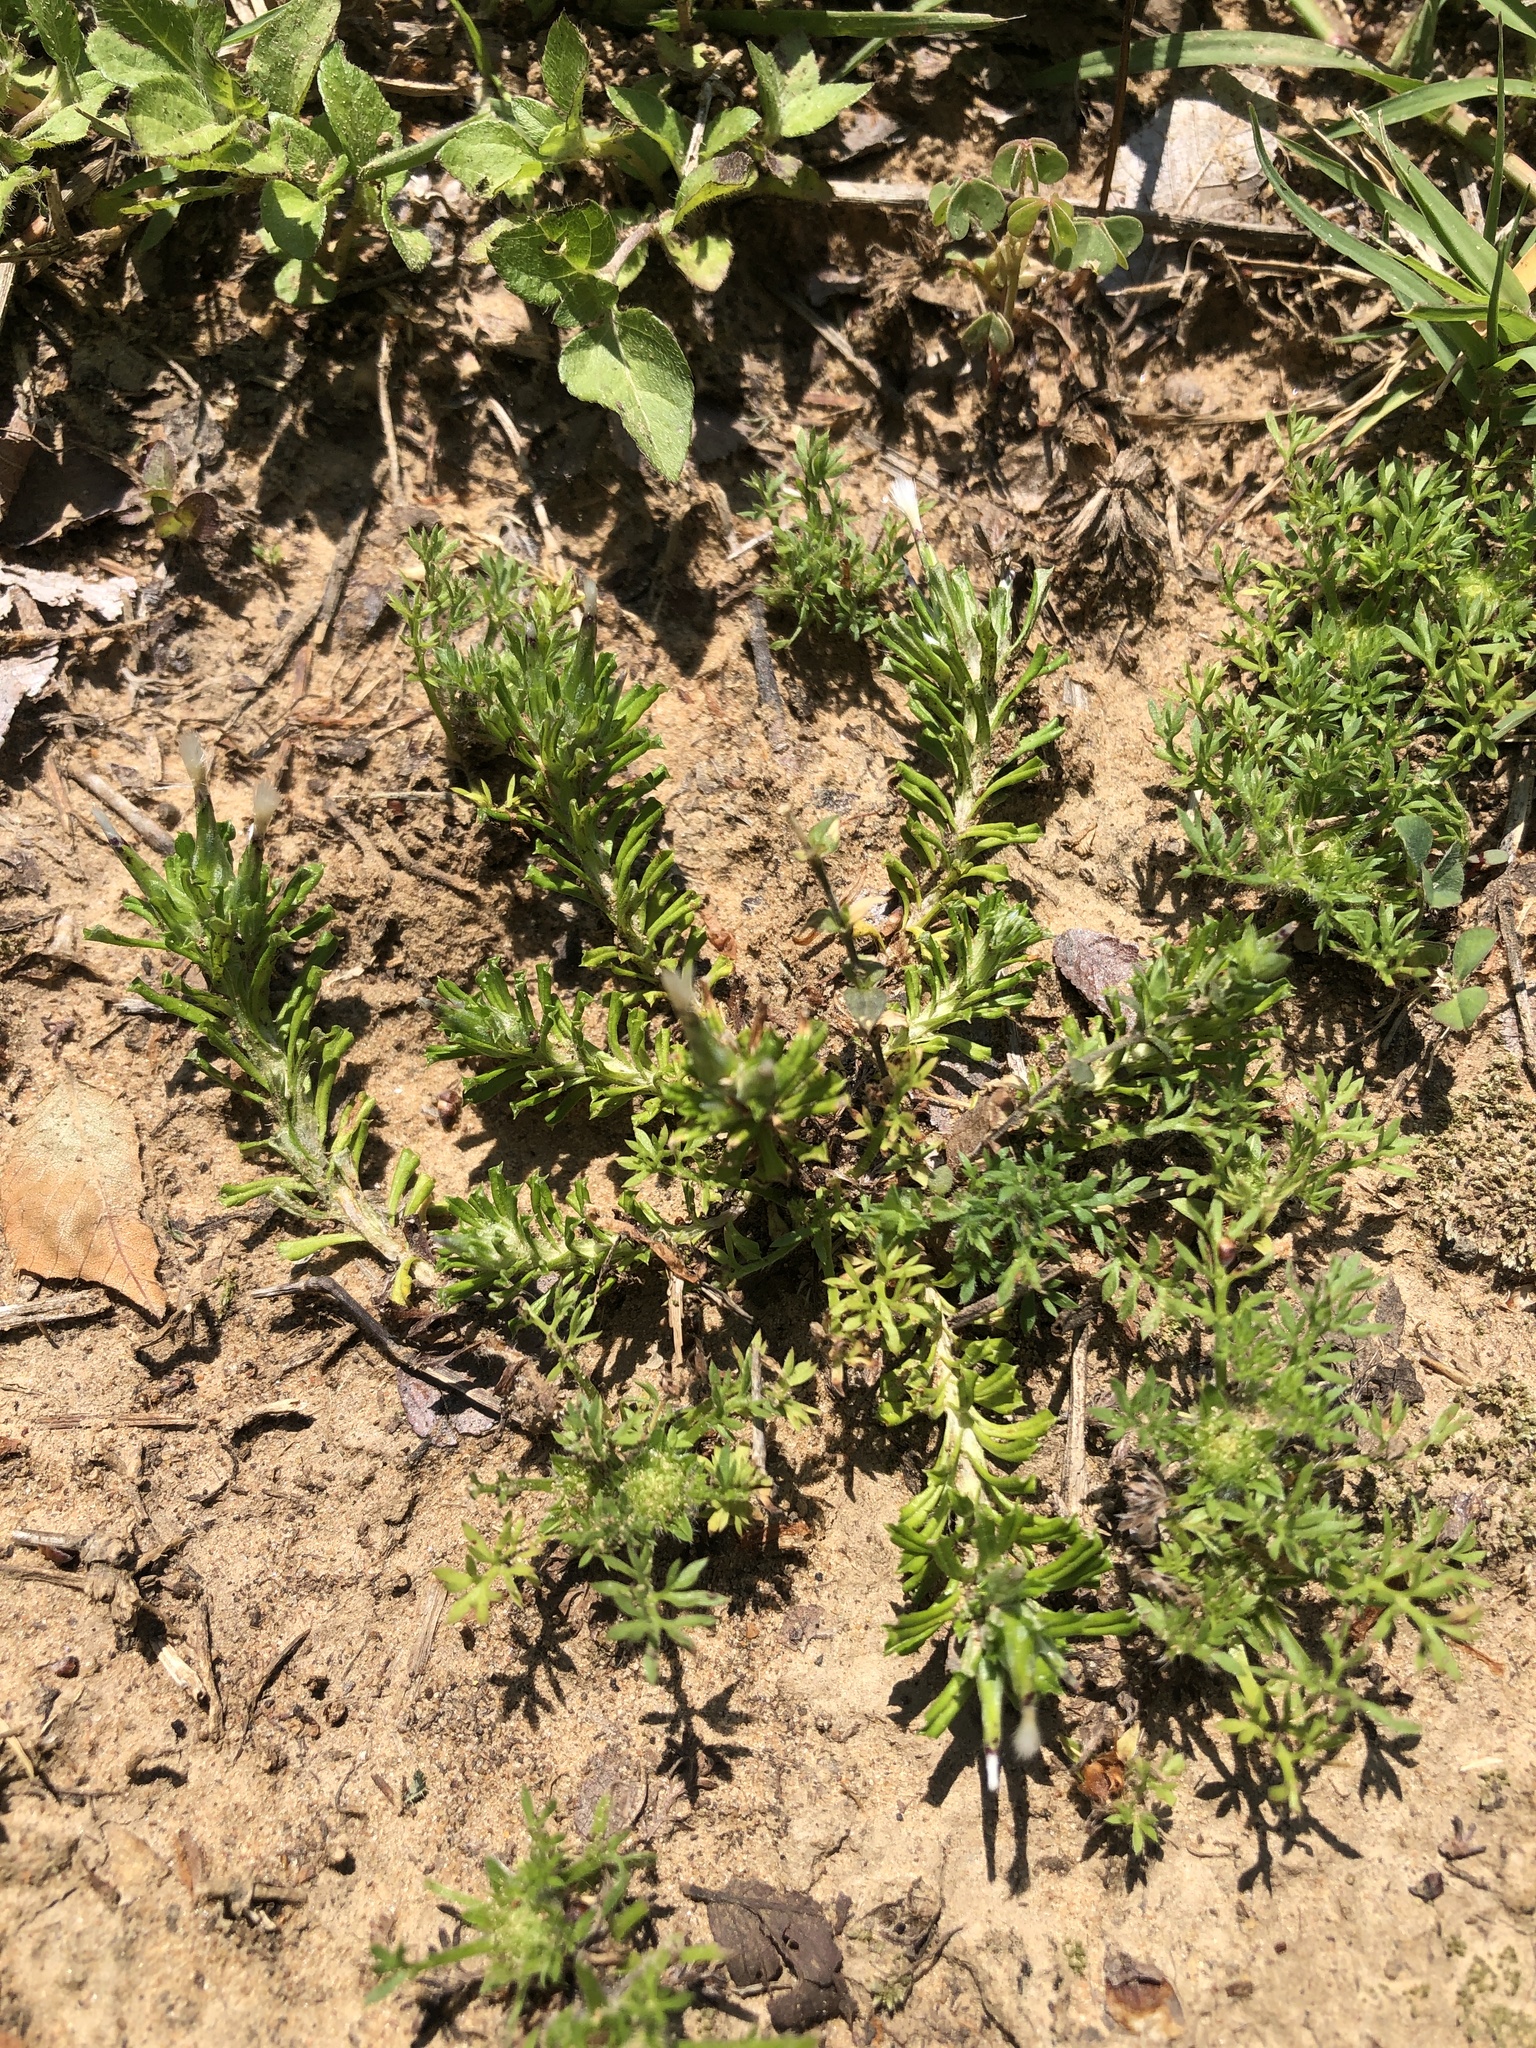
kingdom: Plantae
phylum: Tracheophyta
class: Magnoliopsida
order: Asterales
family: Asteraceae
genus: Facelis
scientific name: Facelis retusa
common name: Annual trampweed
